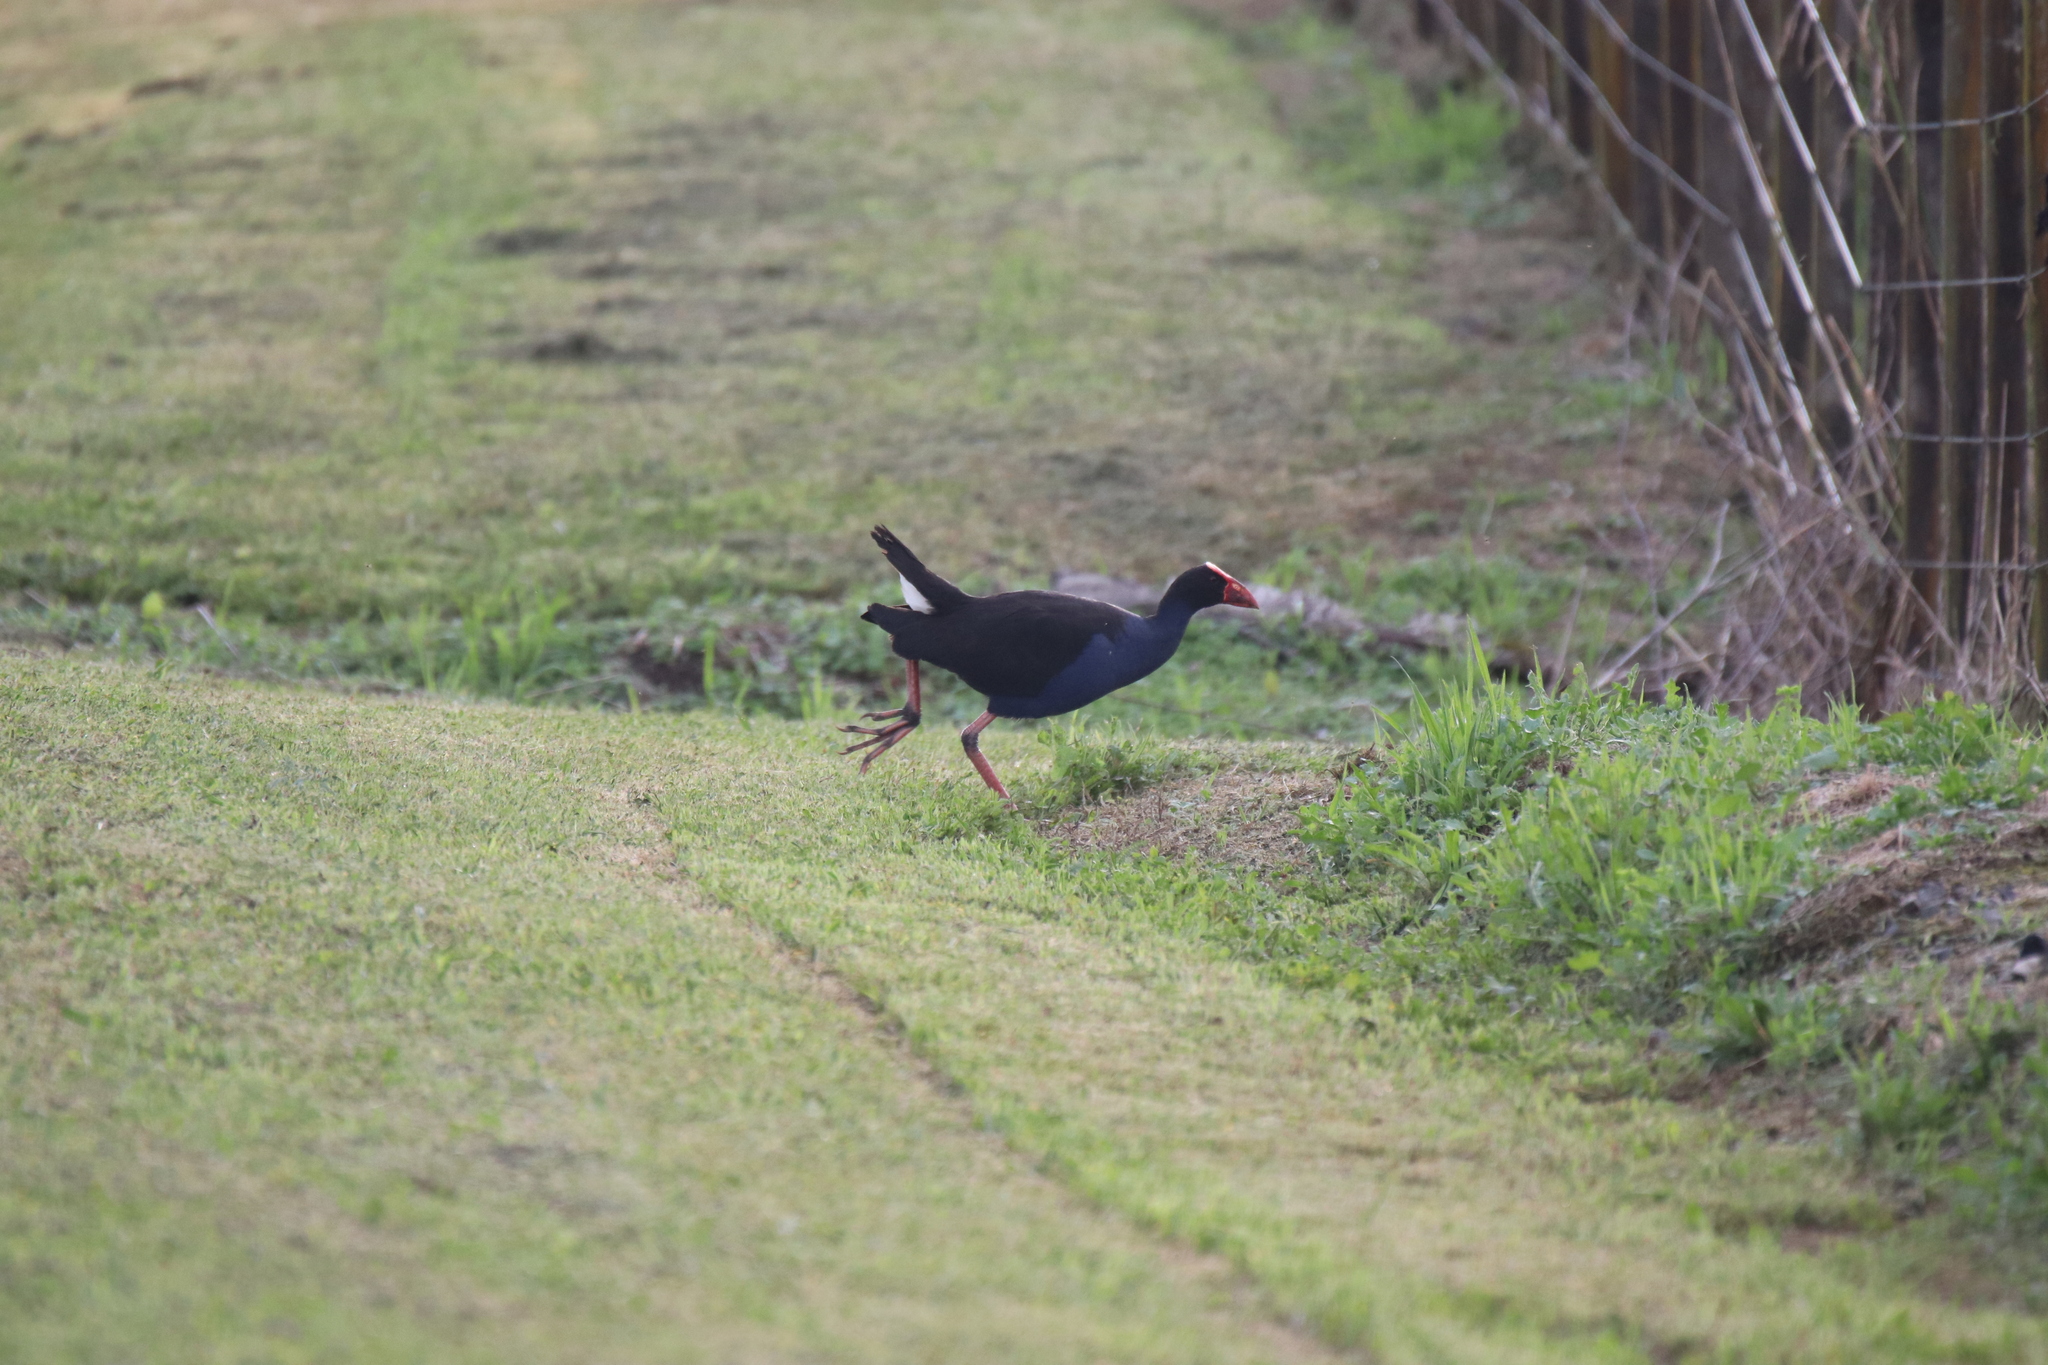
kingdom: Animalia
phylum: Chordata
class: Aves
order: Gruiformes
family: Rallidae
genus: Porphyrio
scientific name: Porphyrio melanotus
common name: Australasian swamphen
